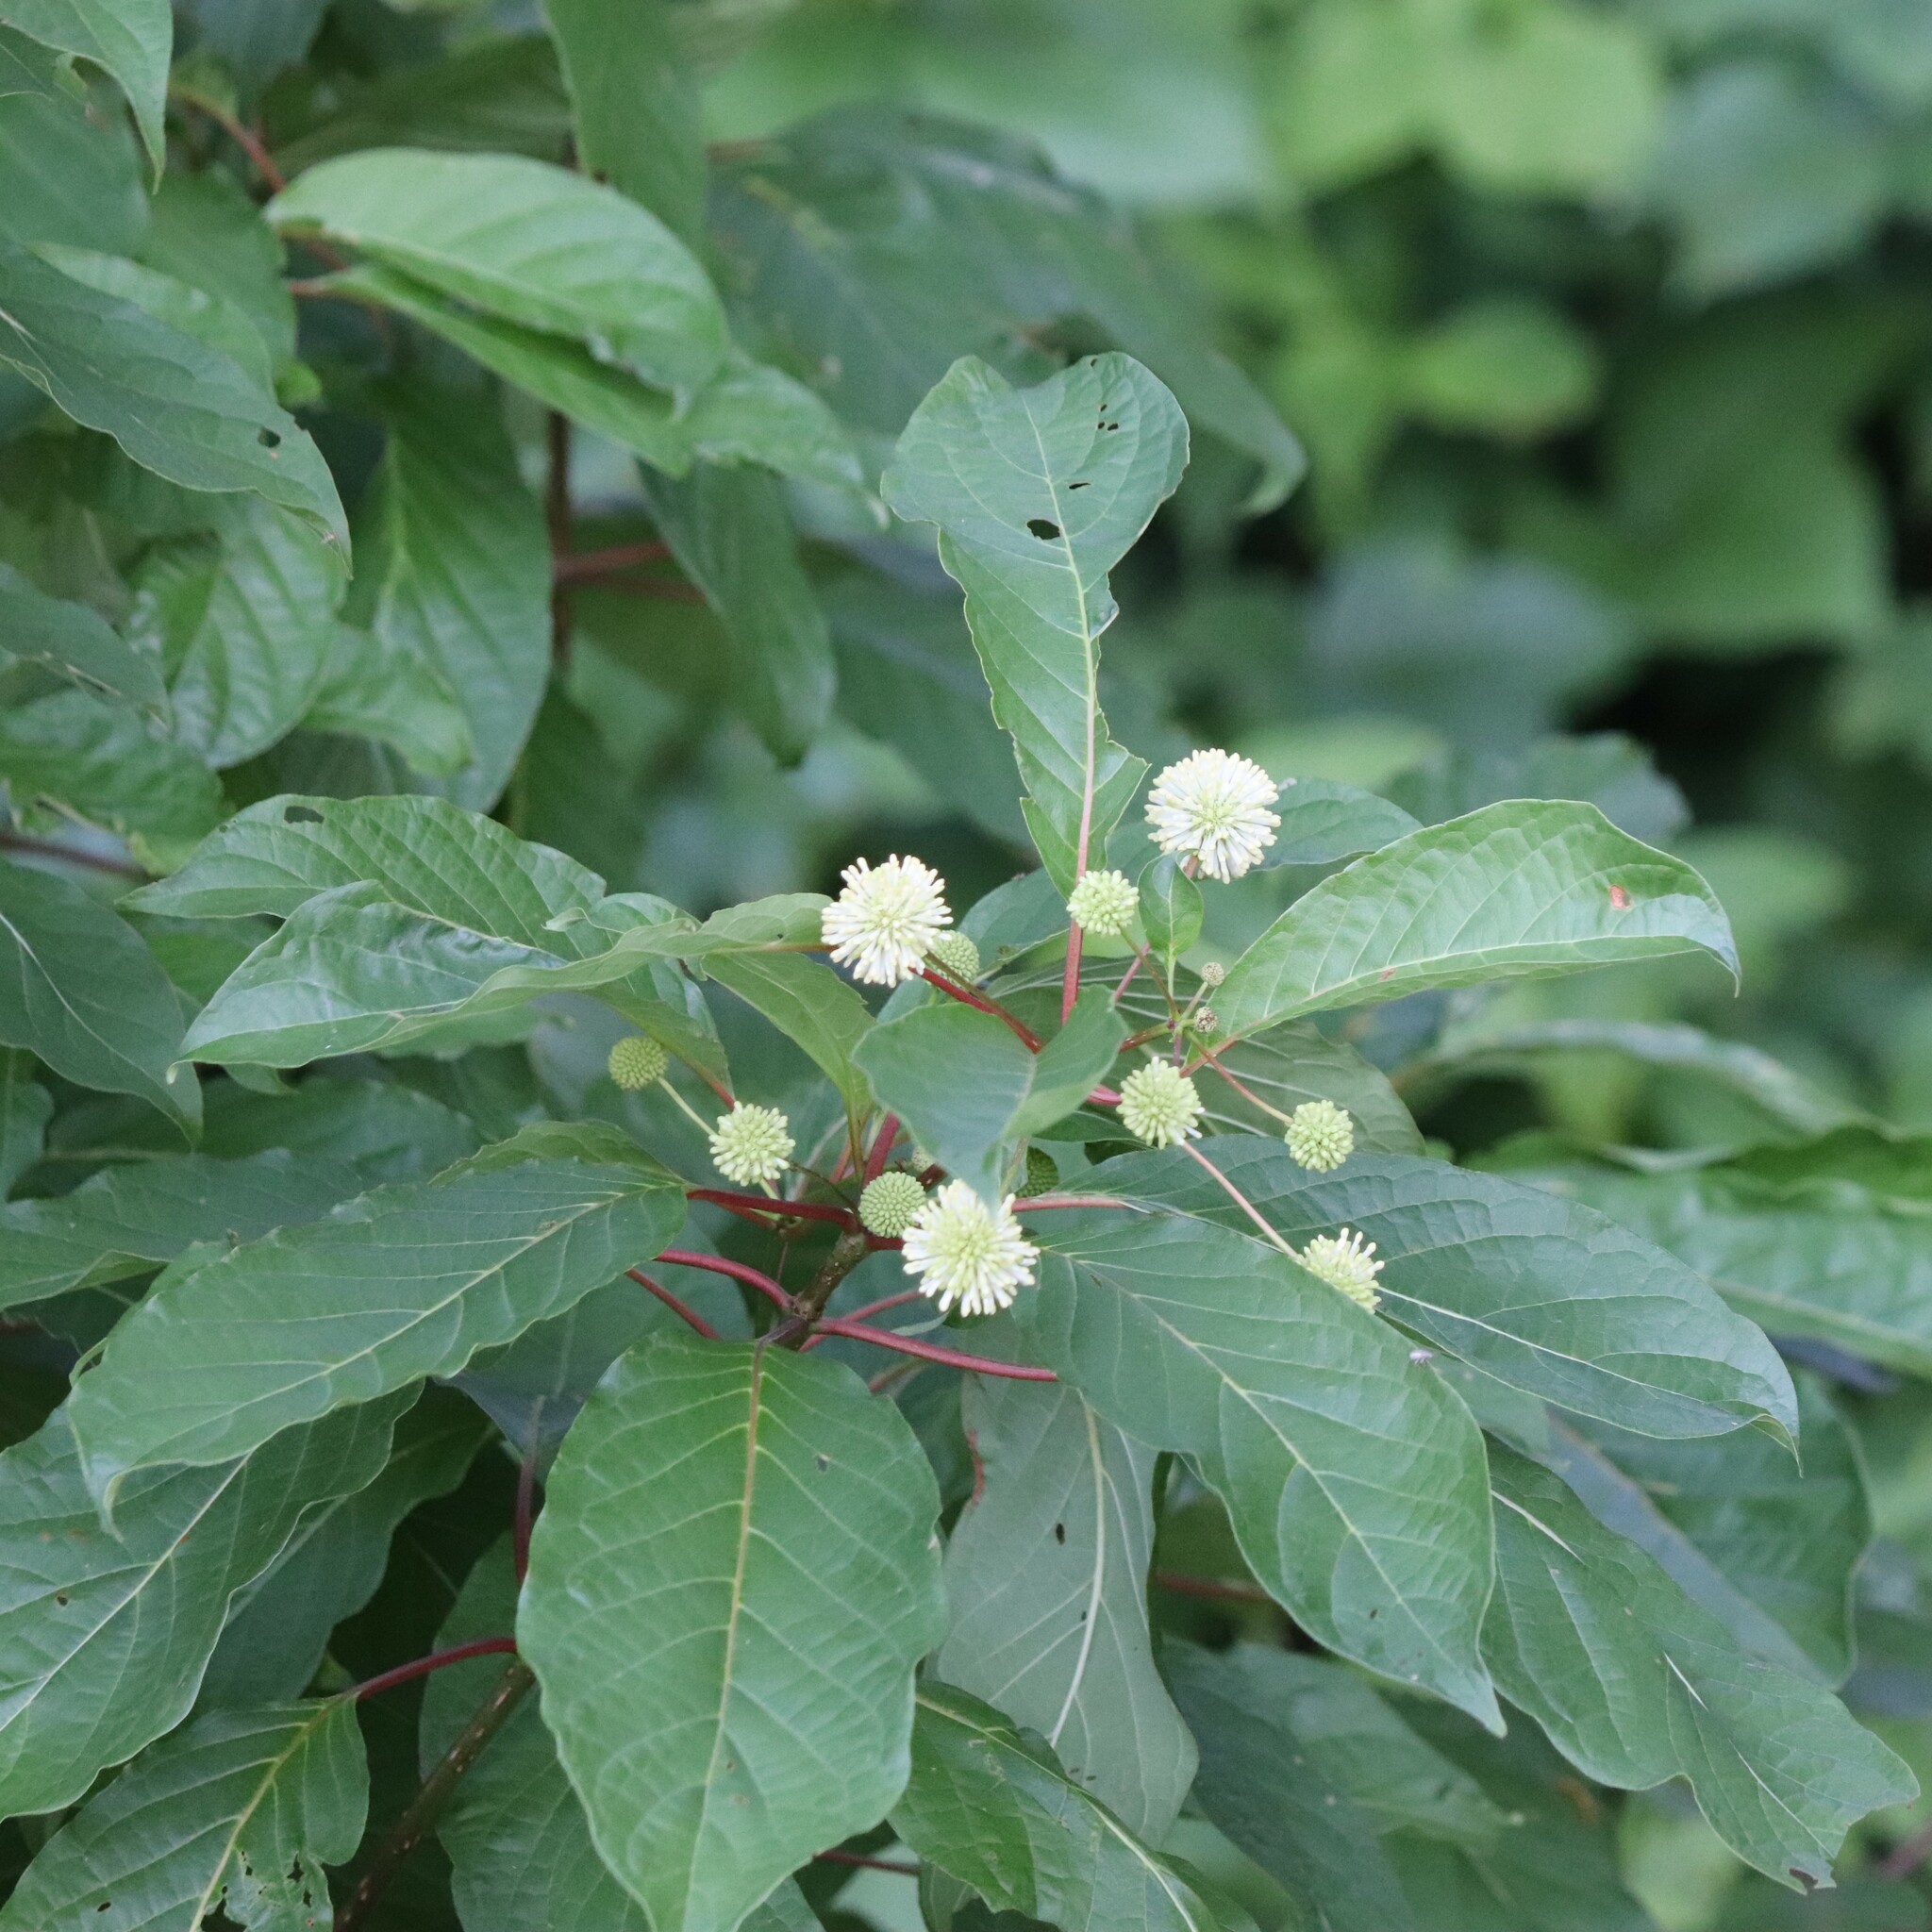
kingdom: Plantae
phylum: Tracheophyta
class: Magnoliopsida
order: Gentianales
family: Rubiaceae
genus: Cephalanthus
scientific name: Cephalanthus occidentalis
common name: Button-willow
